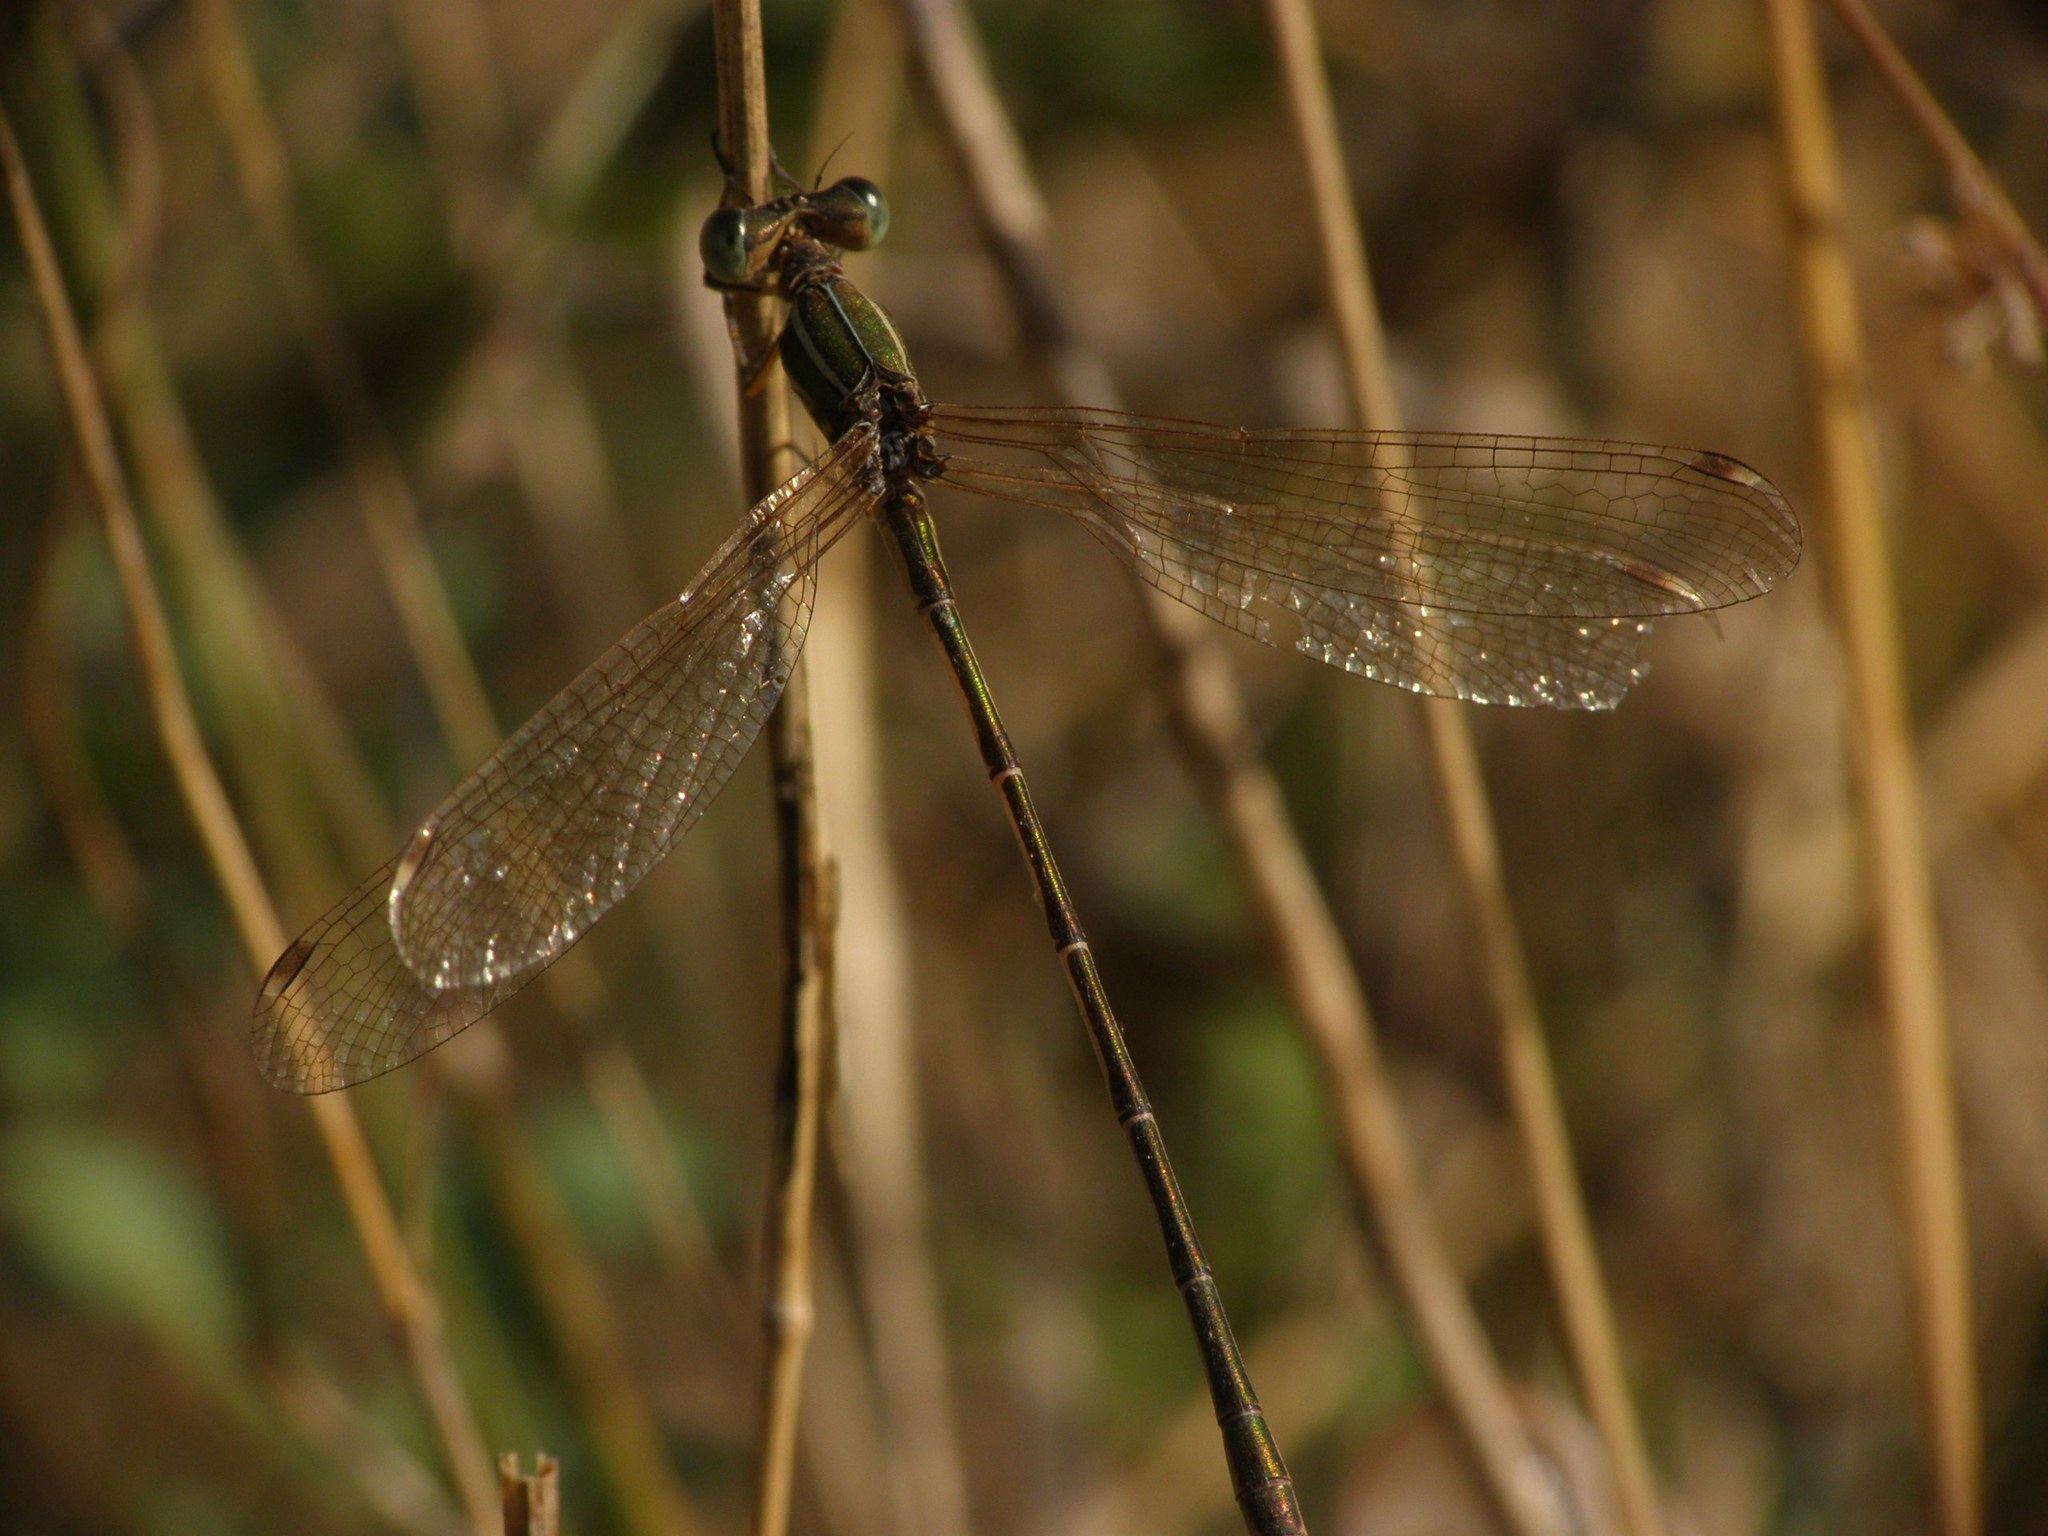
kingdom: Animalia
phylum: Arthropoda
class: Insecta
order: Odonata
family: Lestidae
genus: Lestes
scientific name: Lestes barbarus
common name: Migrant spreadwing
